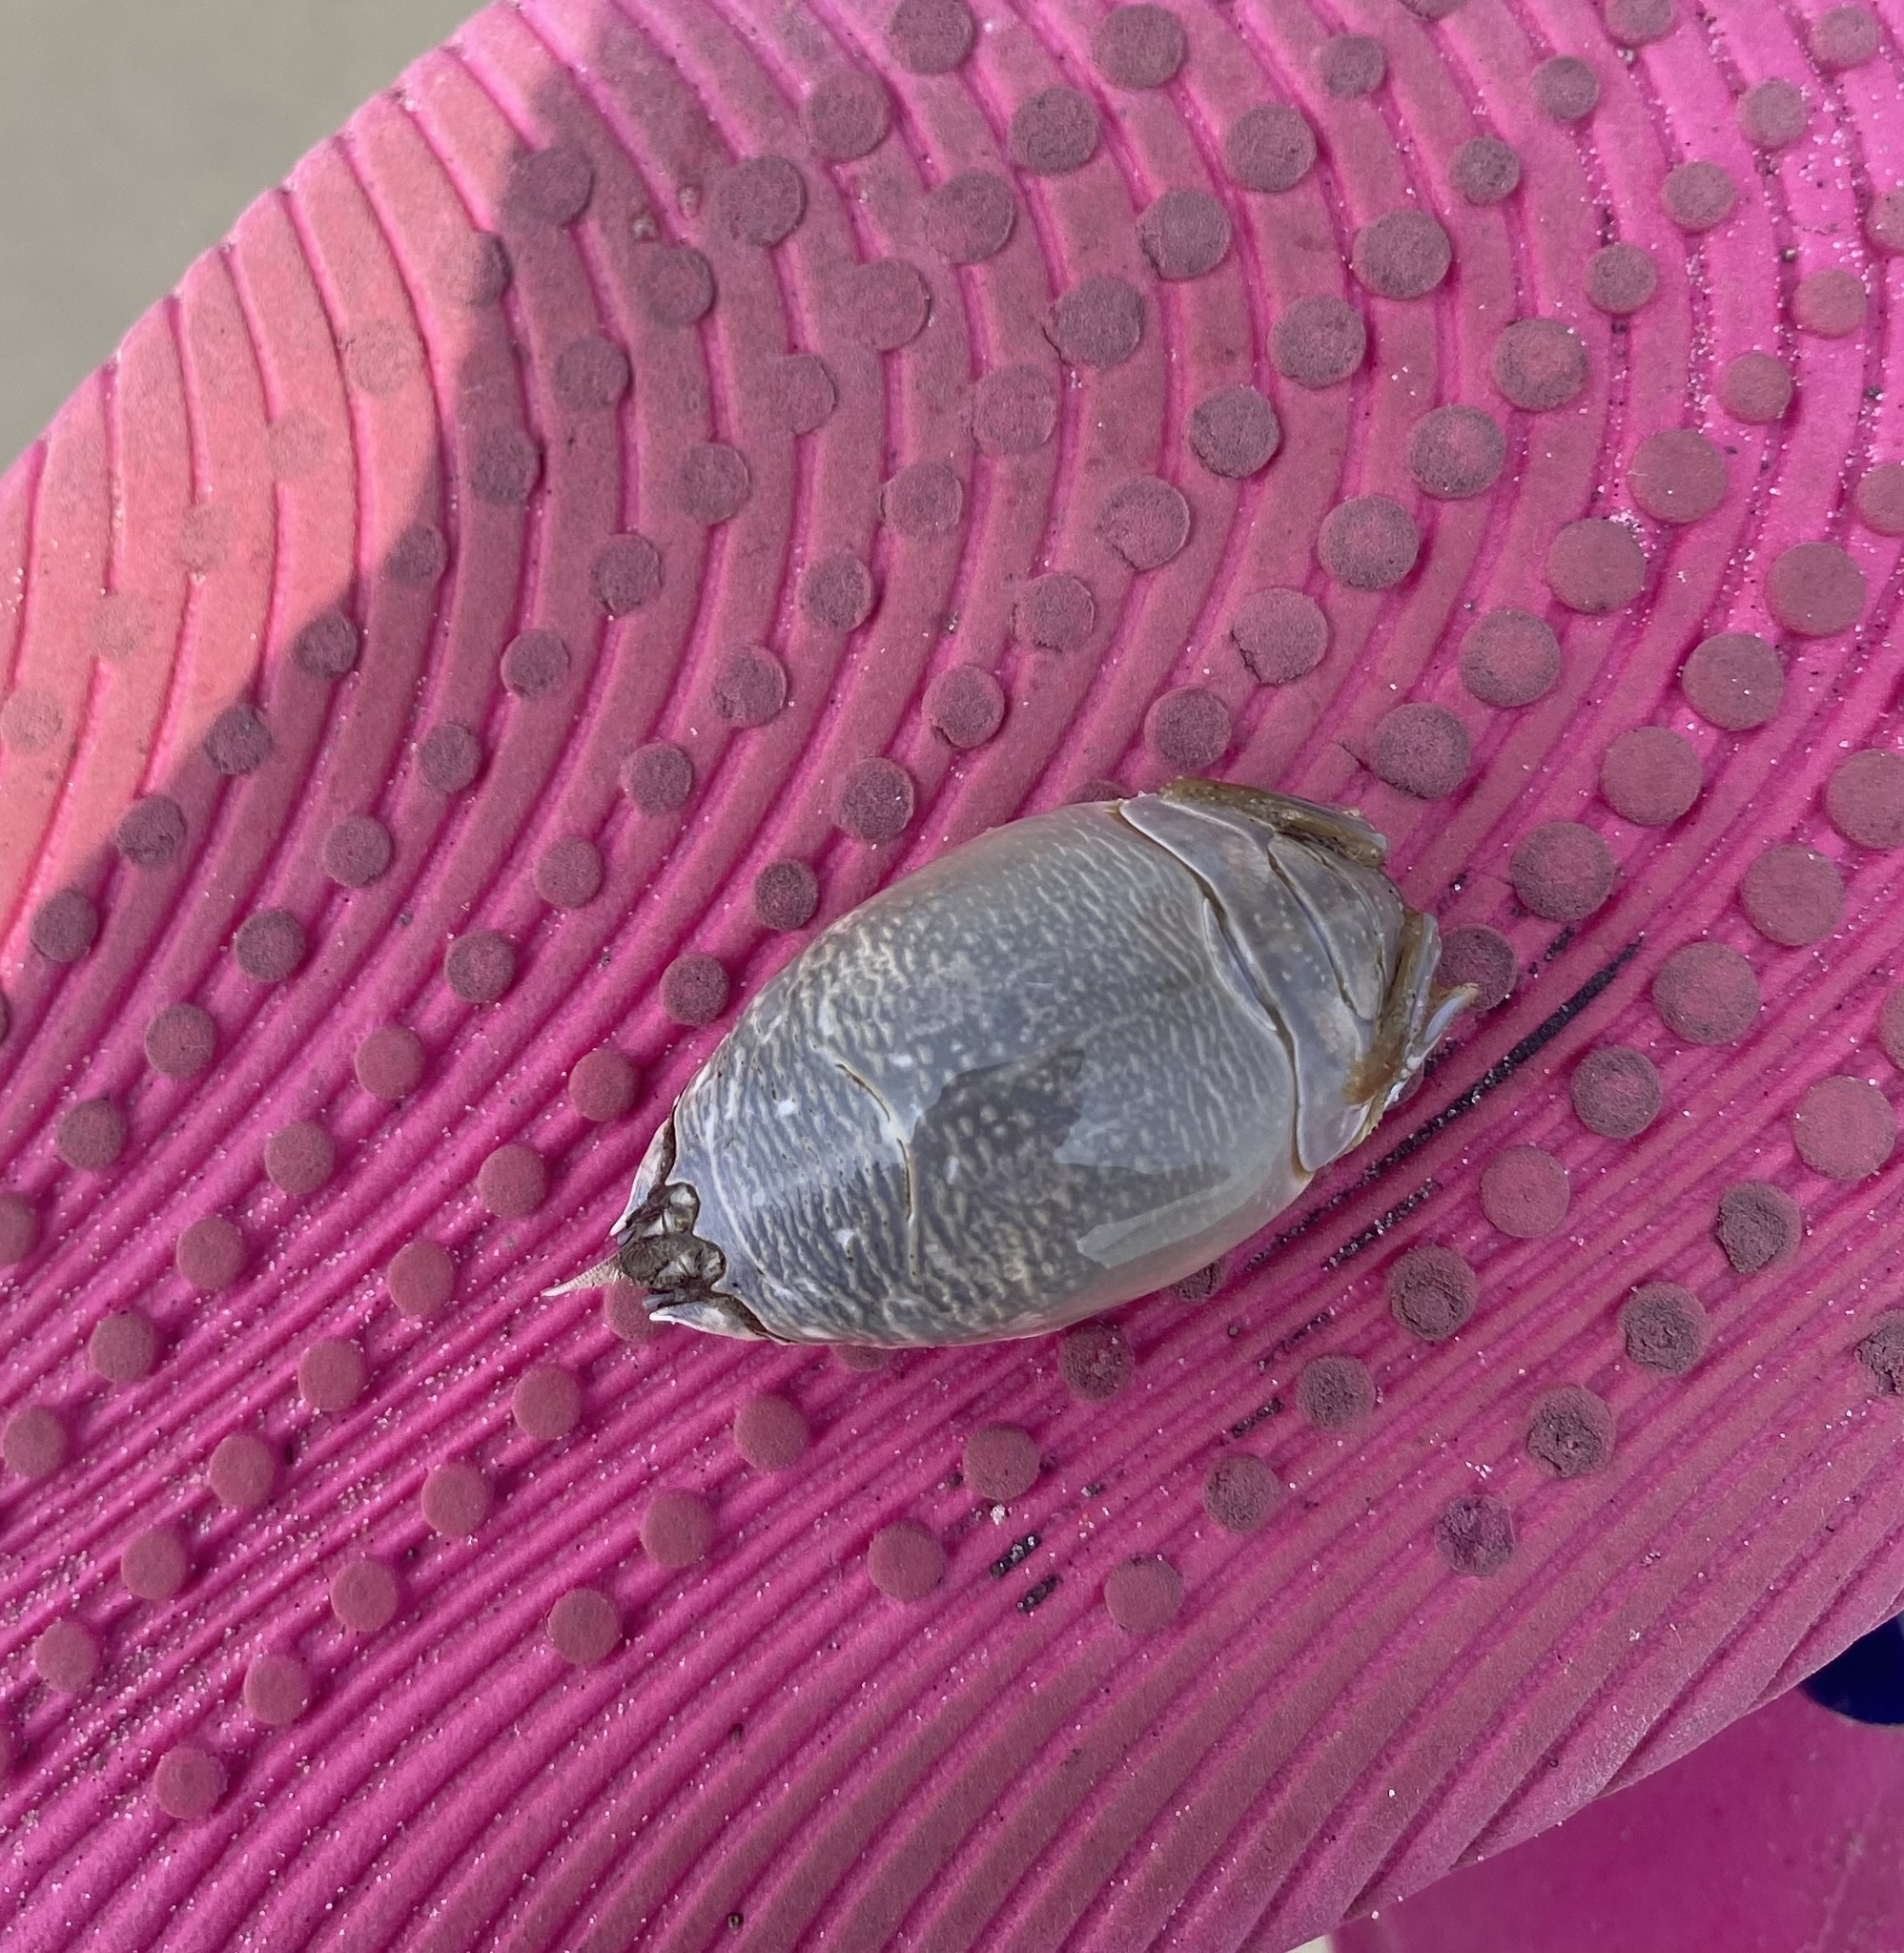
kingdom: Animalia
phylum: Arthropoda
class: Malacostraca
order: Decapoda
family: Hippidae
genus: Emerita
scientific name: Emerita talpoida
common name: Atlantic sand crab
